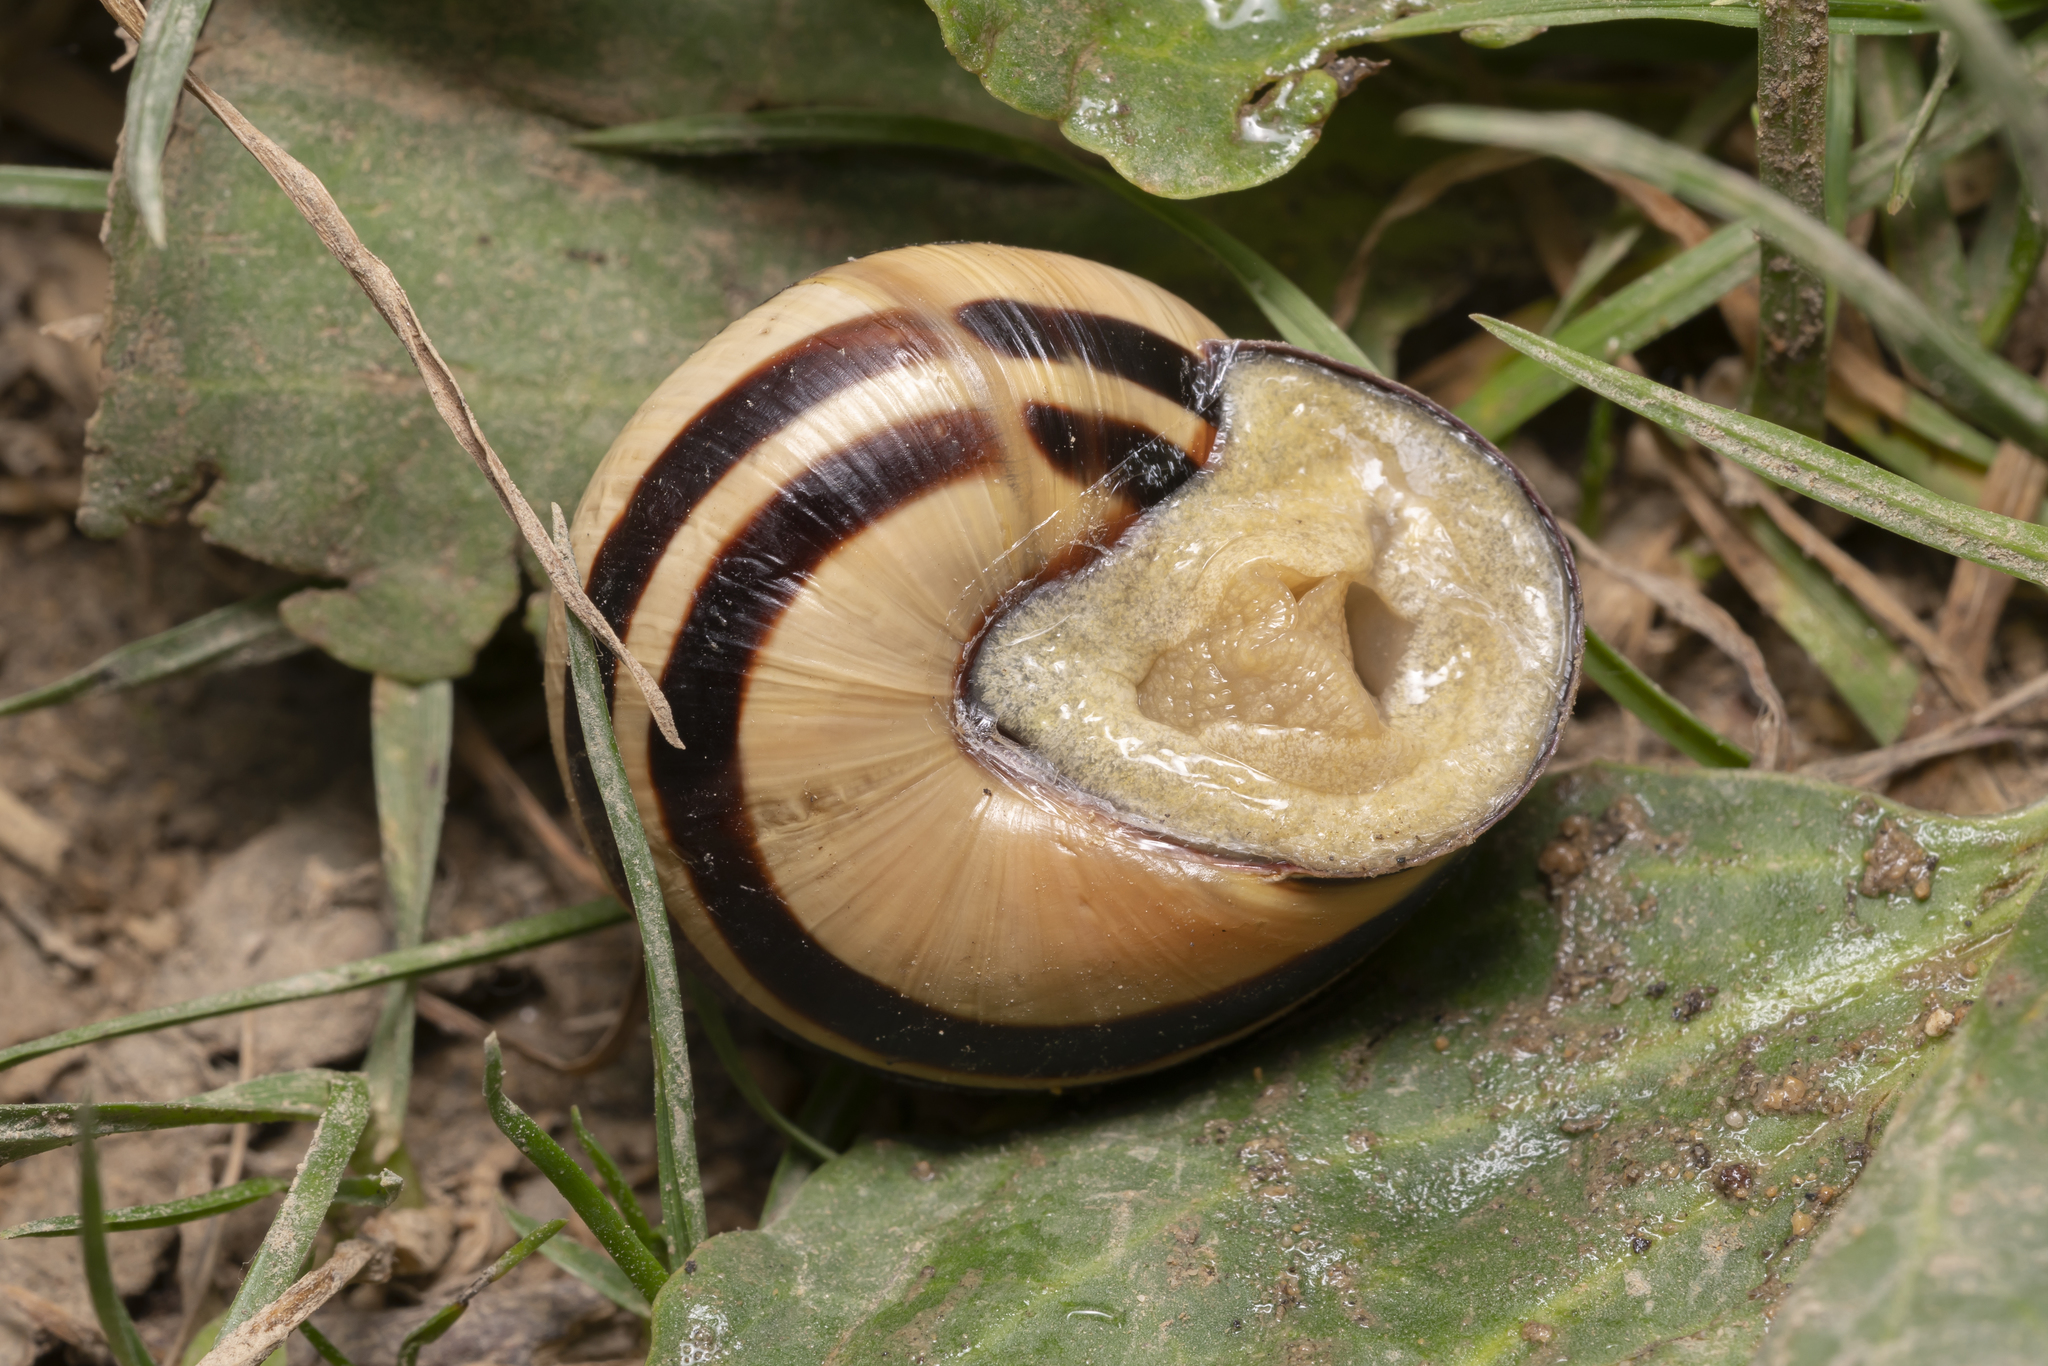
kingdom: Animalia
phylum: Mollusca
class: Gastropoda
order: Stylommatophora
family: Helicidae
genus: Cepaea
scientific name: Cepaea nemoralis
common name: Grovesnail
